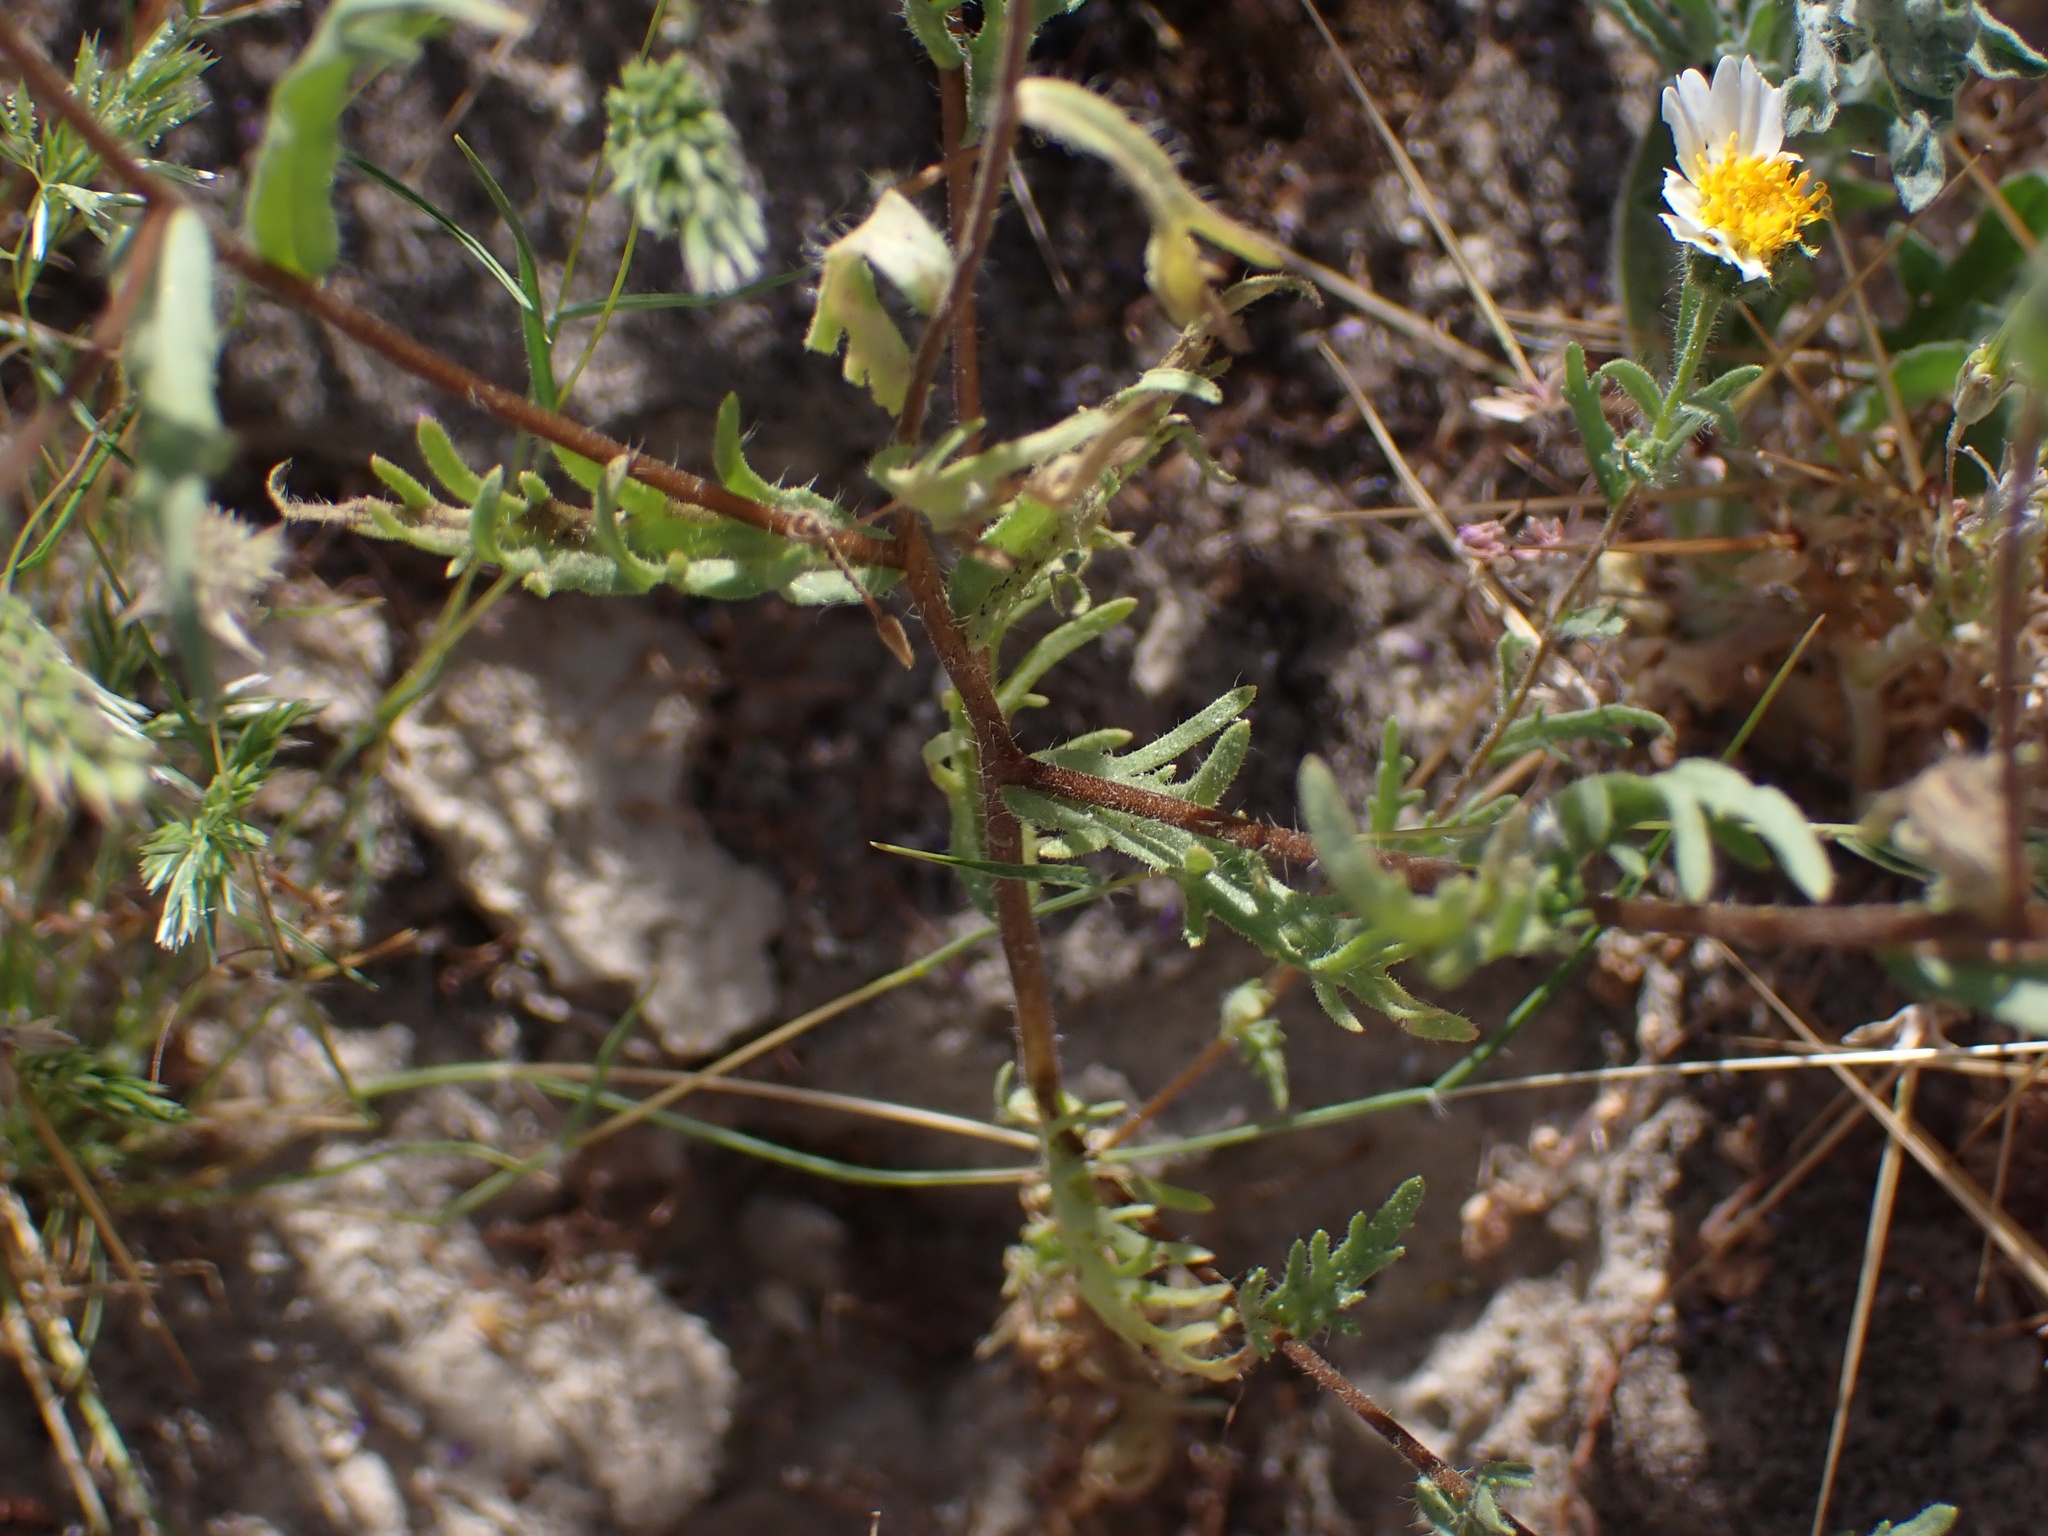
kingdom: Plantae
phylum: Tracheophyta
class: Magnoliopsida
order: Asterales
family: Asteraceae
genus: Layia
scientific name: Layia pentachaeta
